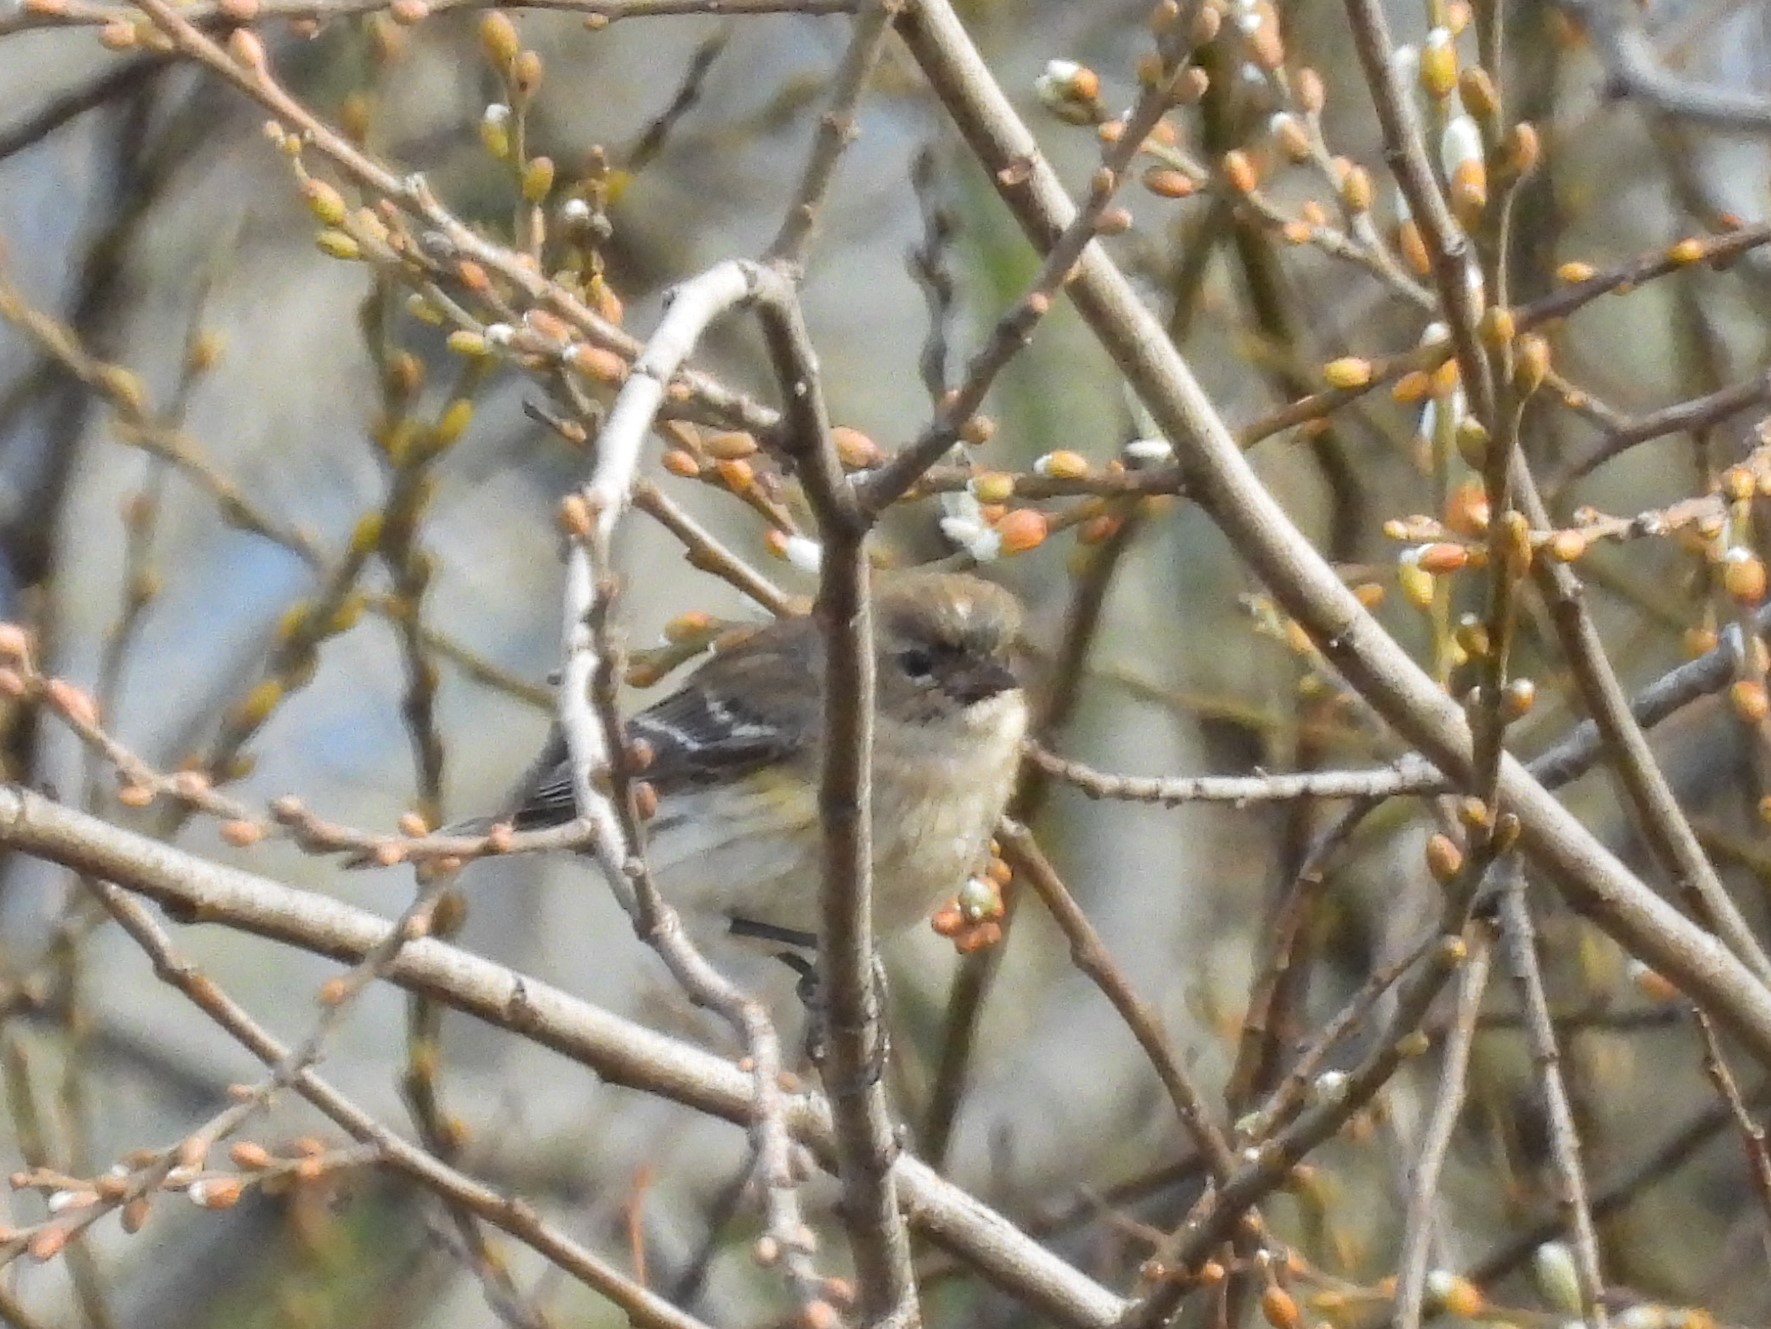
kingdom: Animalia
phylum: Chordata
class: Aves
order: Passeriformes
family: Parulidae
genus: Setophaga
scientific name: Setophaga coronata
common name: Myrtle warbler
